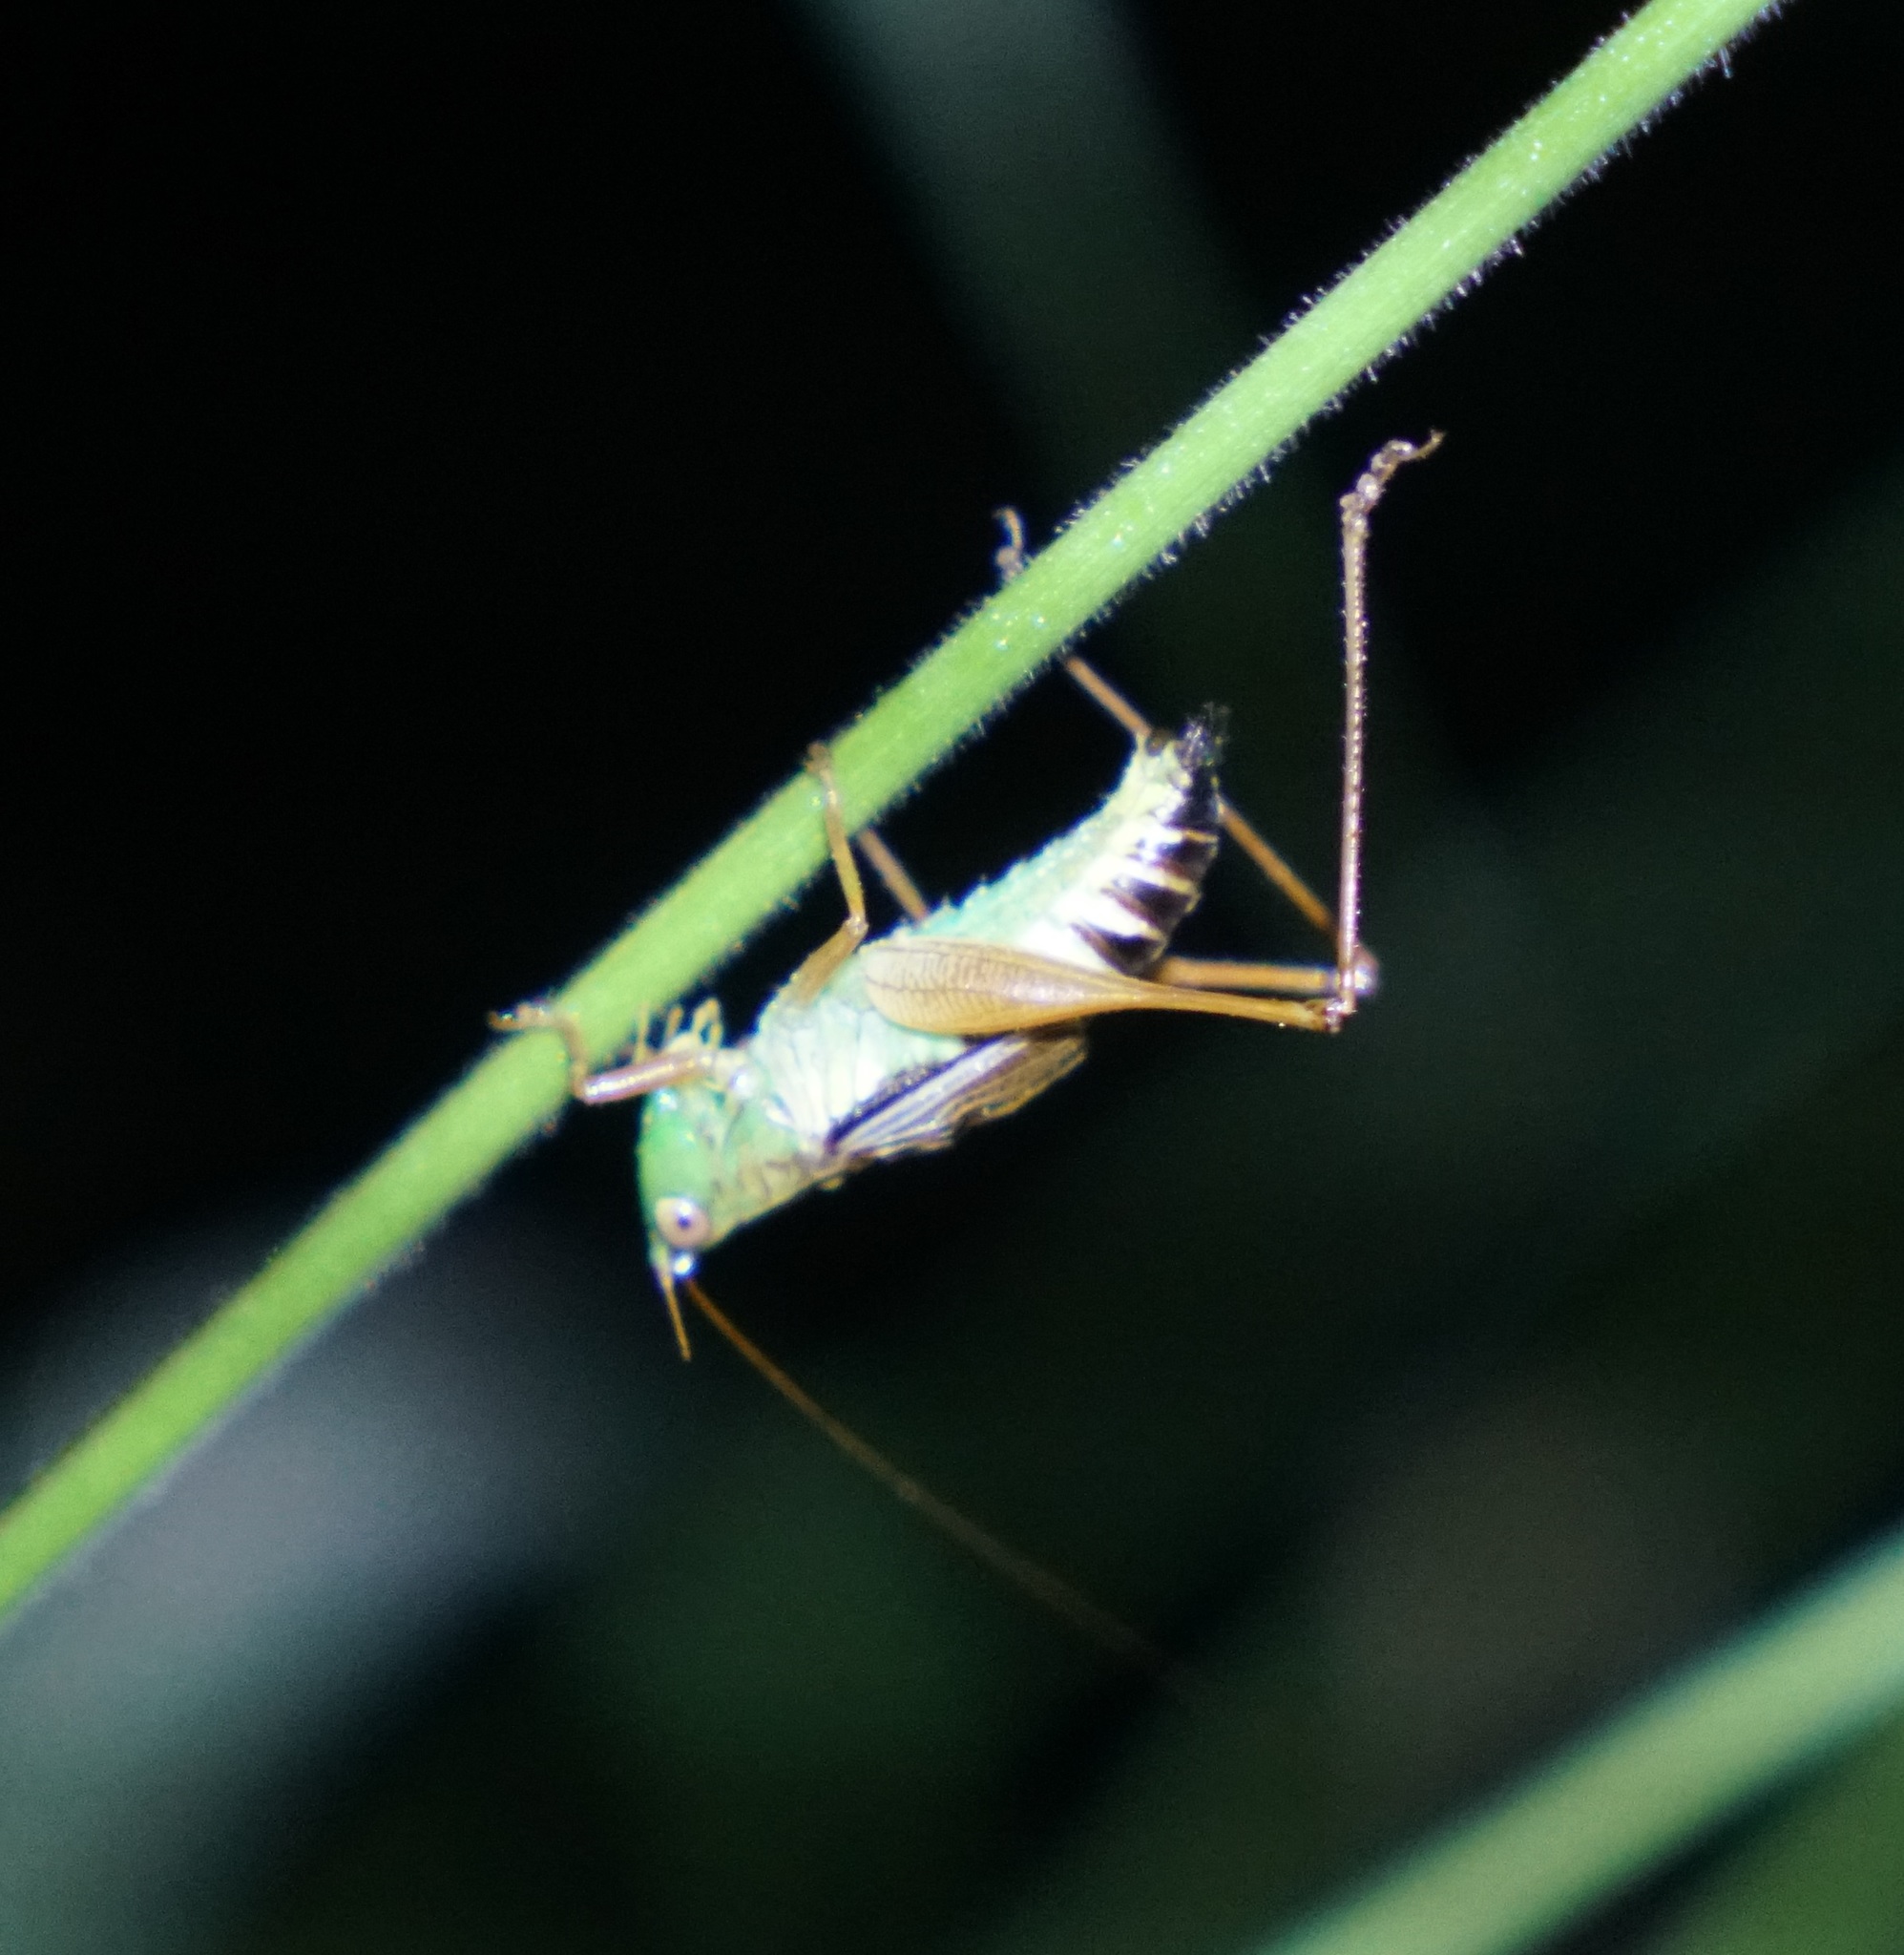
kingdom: Animalia
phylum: Arthropoda
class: Insecta
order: Orthoptera
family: Tettigoniidae
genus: Conocephalus
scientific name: Conocephalus semivittatus
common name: Blackish meadow katydid
